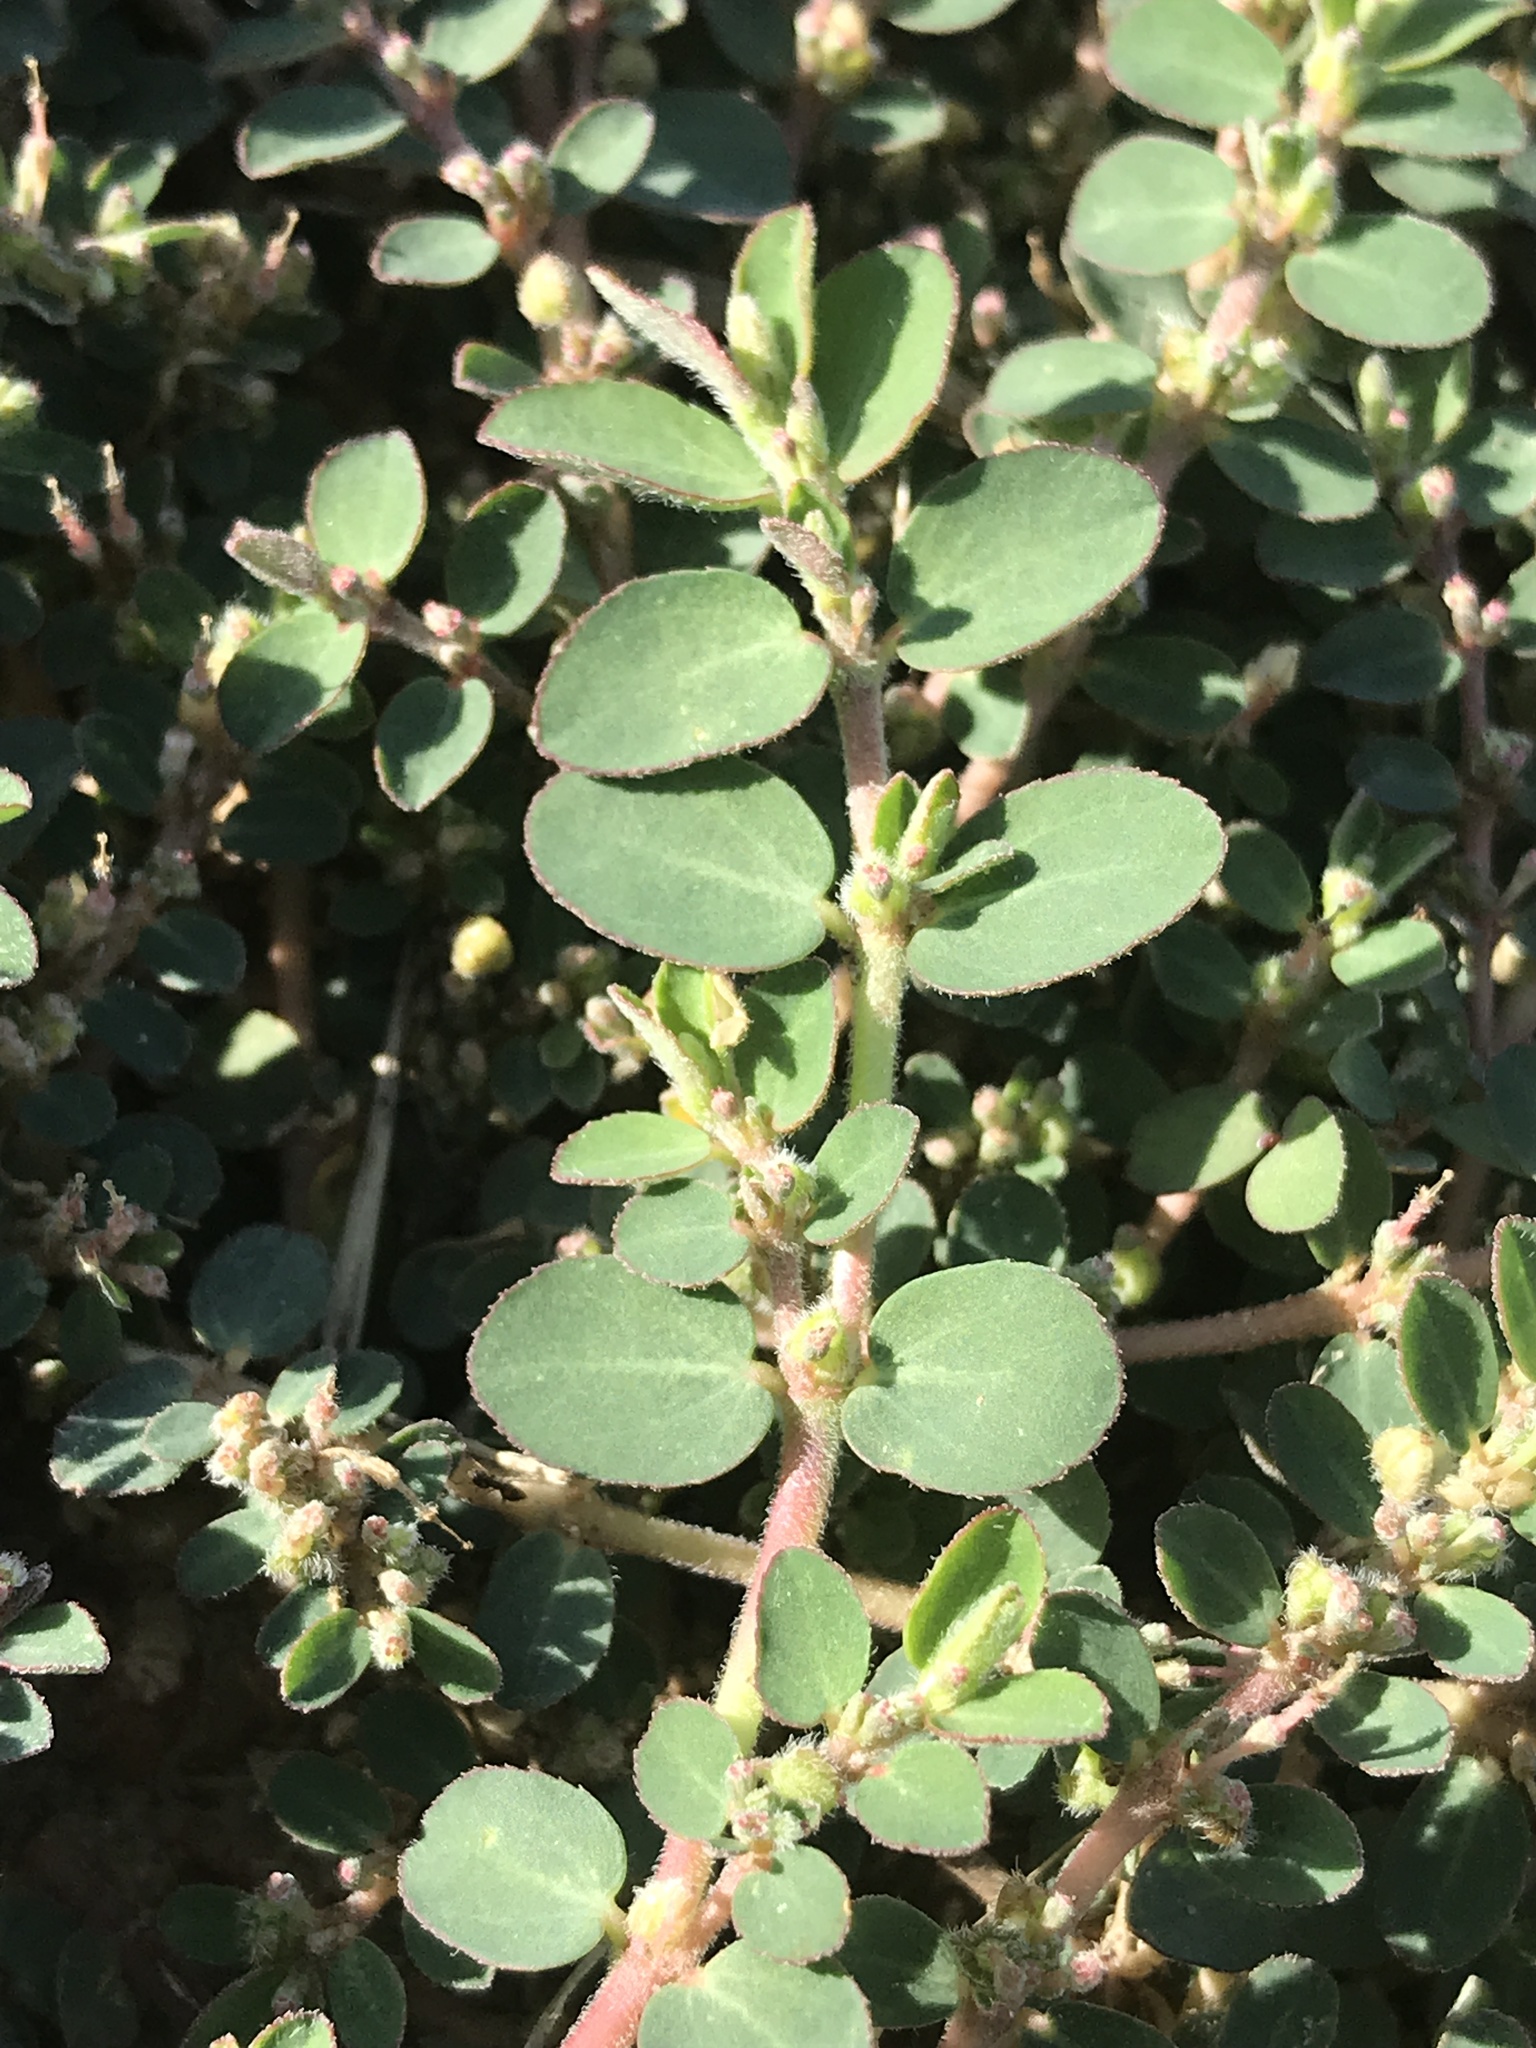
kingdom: Plantae
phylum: Tracheophyta
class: Magnoliopsida
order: Malpighiales
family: Euphorbiaceae
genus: Euphorbia
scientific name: Euphorbia prostrata
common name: Prostrate sandmat
